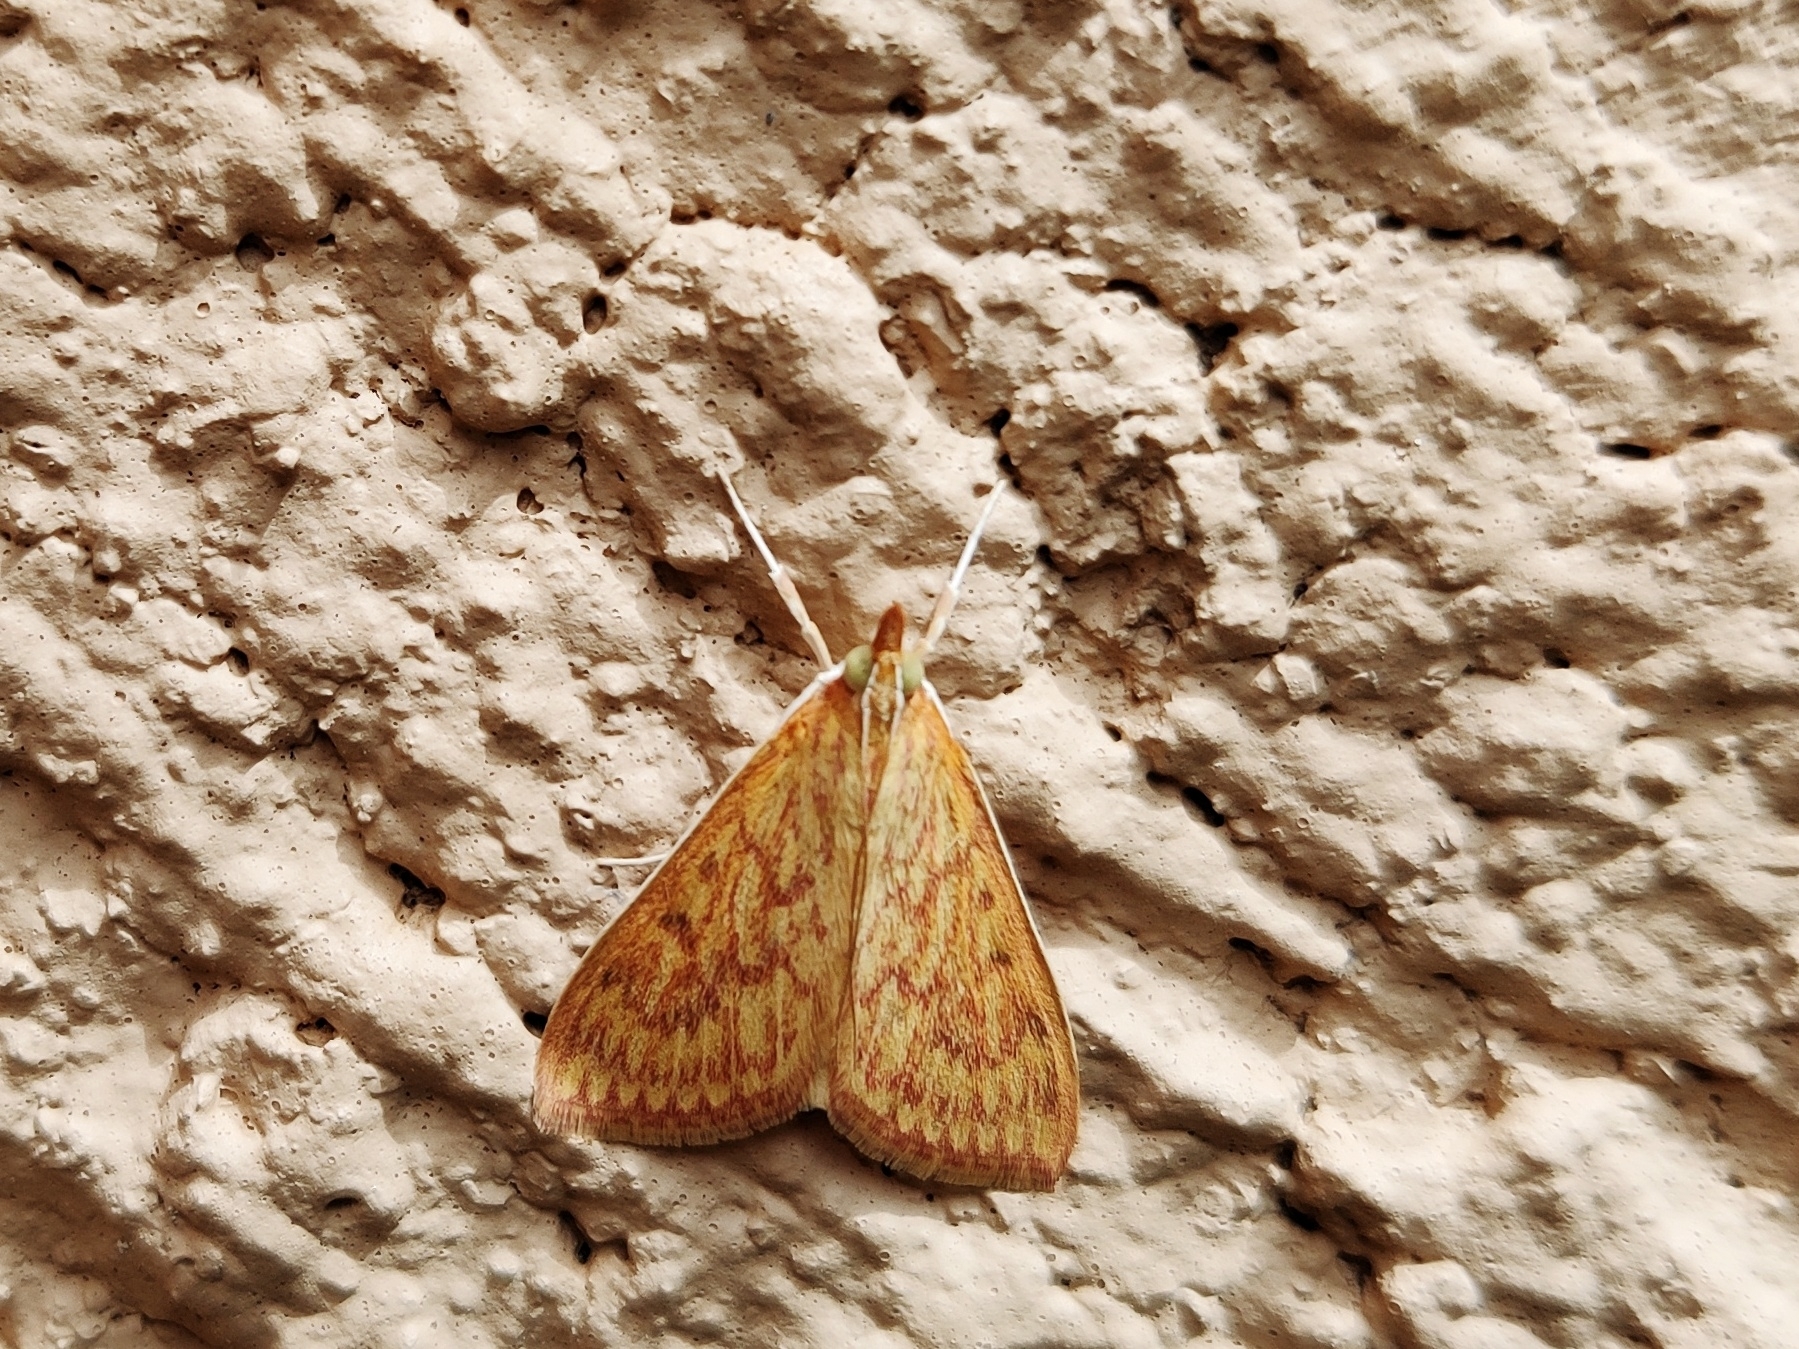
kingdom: Animalia
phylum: Arthropoda
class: Insecta
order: Lepidoptera
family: Crambidae
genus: Paliga
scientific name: Paliga damastesalis
